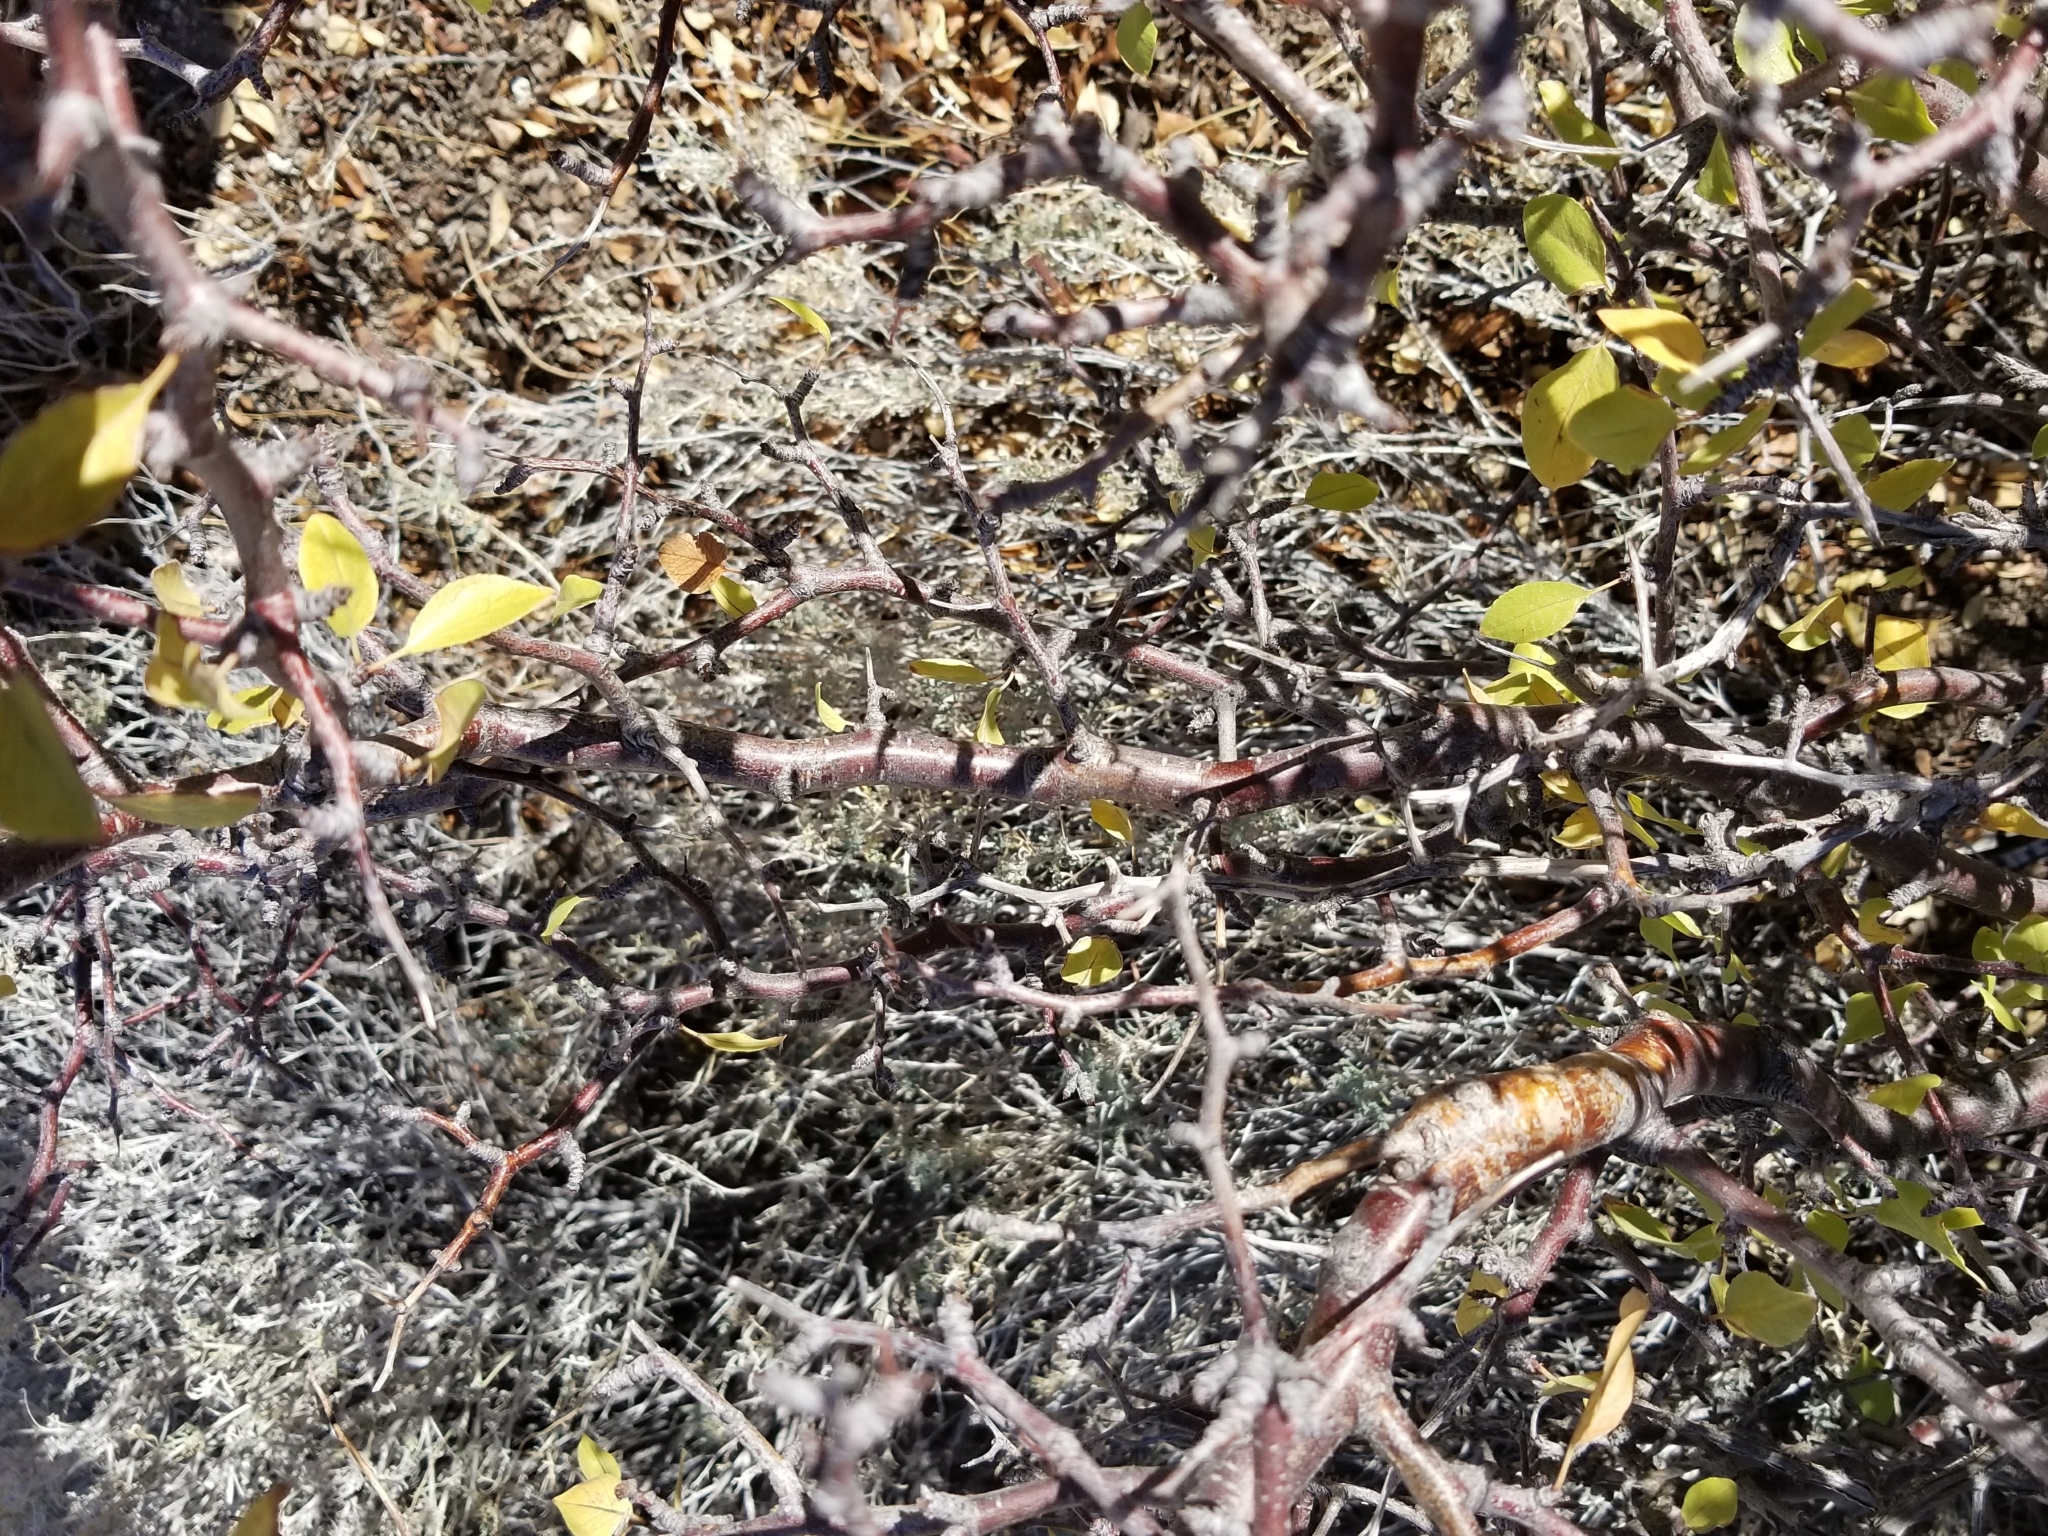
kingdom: Plantae
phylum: Tracheophyta
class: Magnoliopsida
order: Rosales
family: Rosaceae
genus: Prunus
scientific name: Prunus fremontii
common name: Desert apricot
